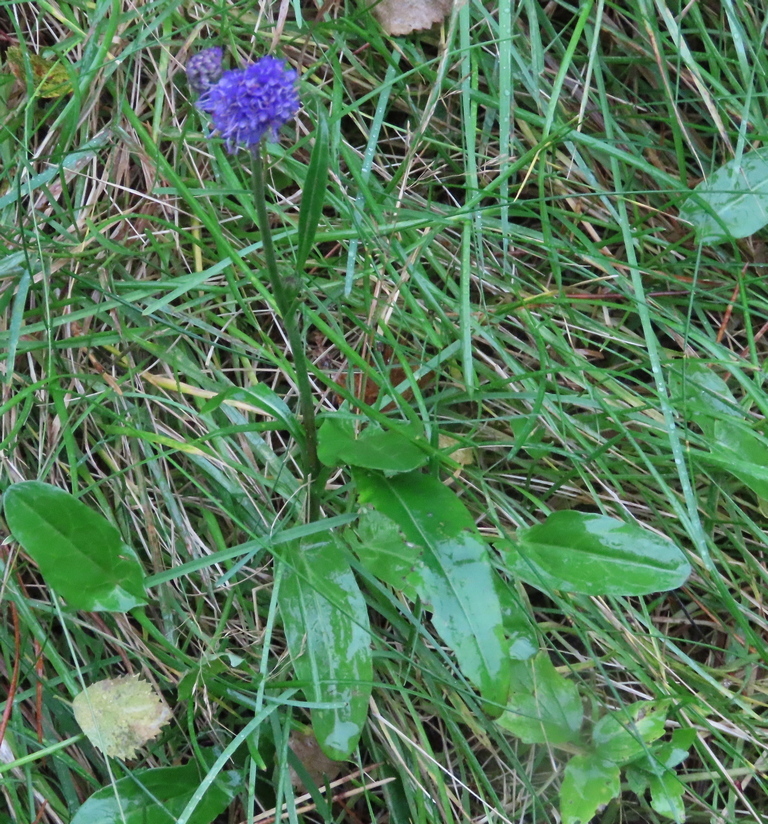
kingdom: Plantae
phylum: Tracheophyta
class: Magnoliopsida
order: Dipsacales
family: Caprifoliaceae
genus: Succisa
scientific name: Succisa pratensis
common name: Devil's-bit
